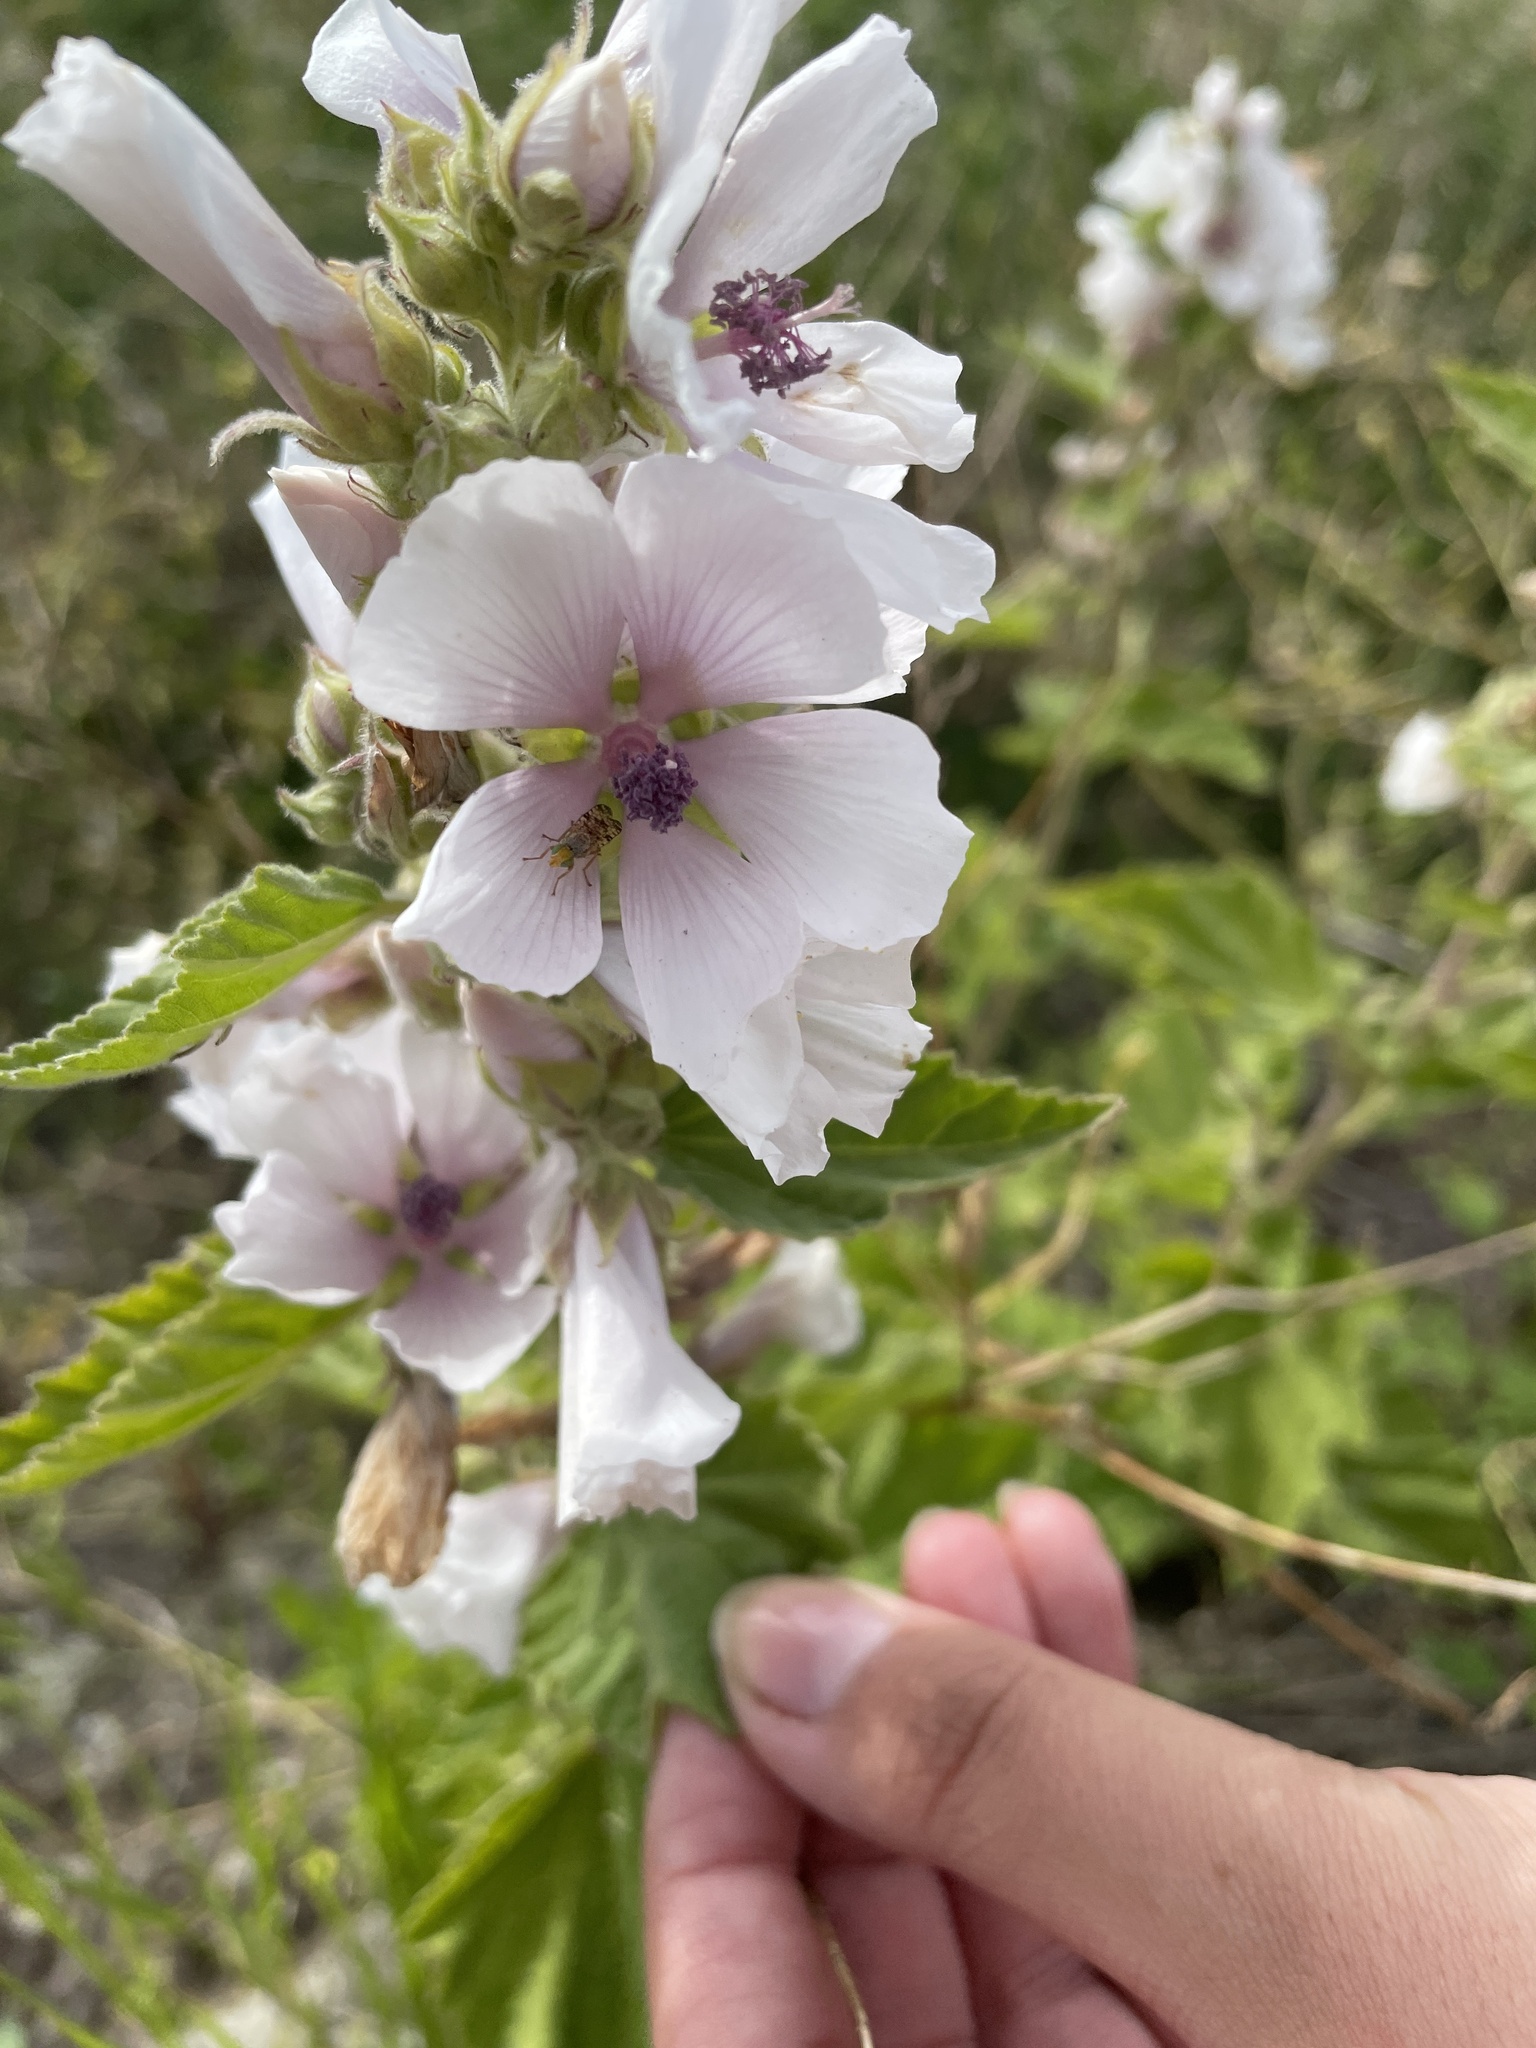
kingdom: Plantae
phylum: Tracheophyta
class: Magnoliopsida
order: Malvales
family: Malvaceae
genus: Althaea
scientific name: Althaea officinalis
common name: Marsh-mallow
